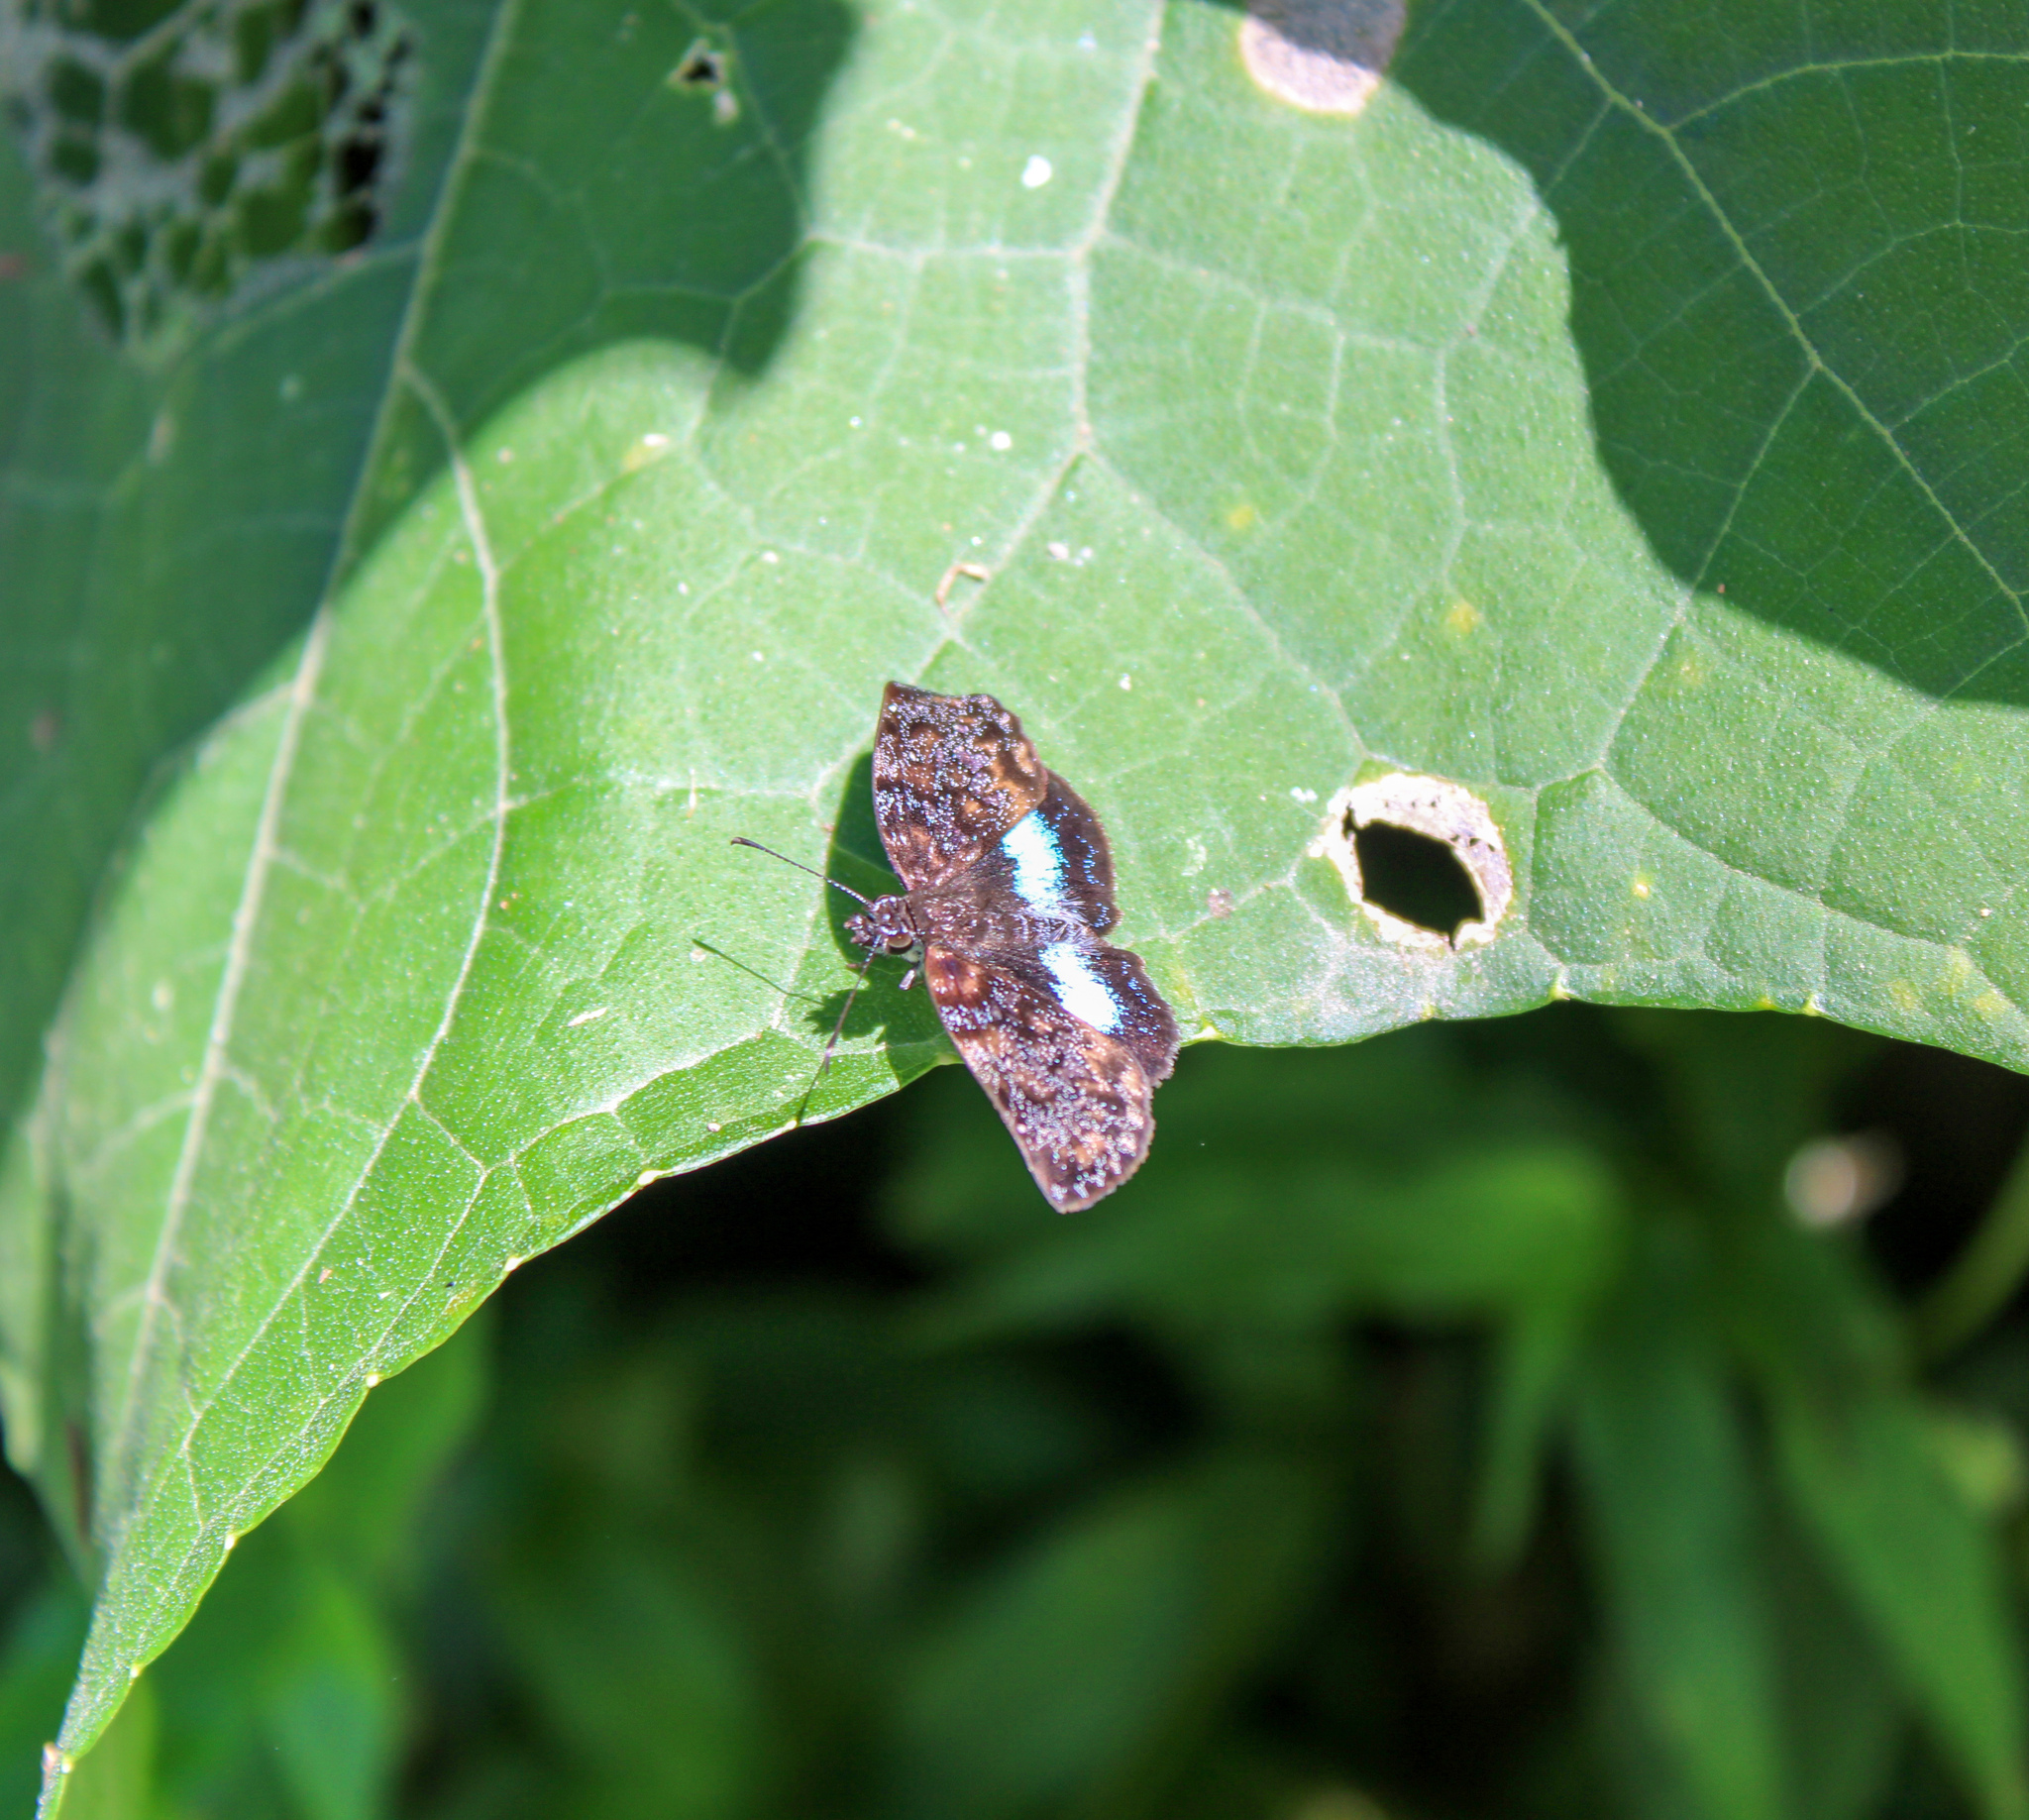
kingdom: Animalia
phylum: Arthropoda
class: Insecta
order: Lepidoptera
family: Hesperiidae
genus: Sostrata
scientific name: Sostrata
